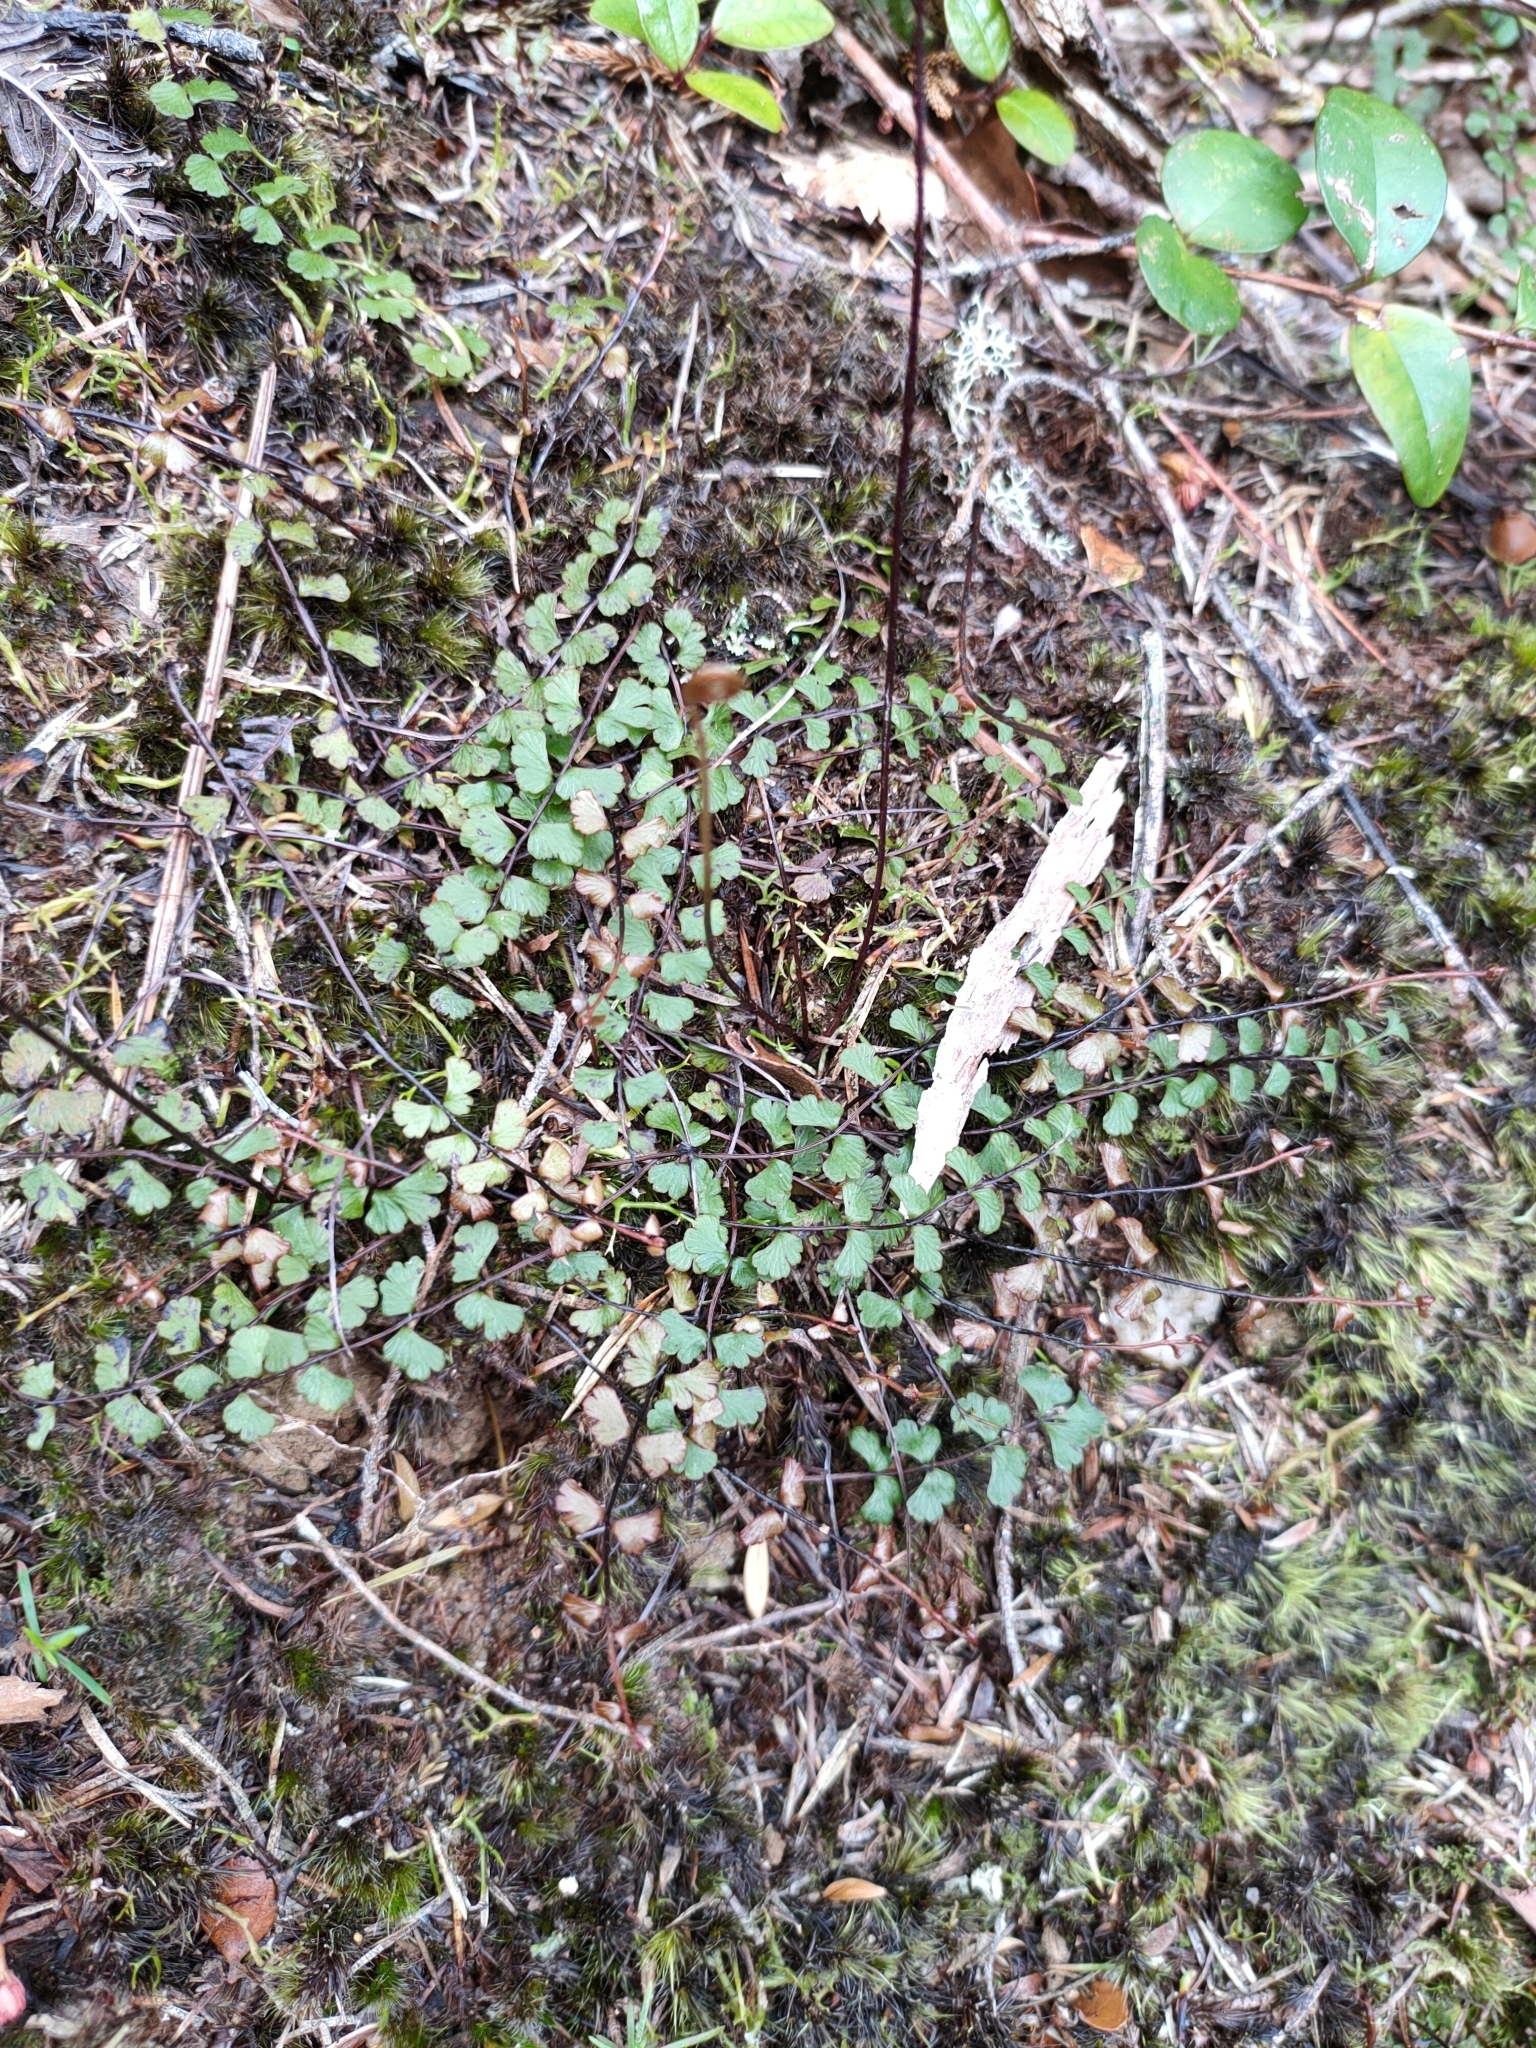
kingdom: Plantae
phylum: Tracheophyta
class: Polypodiopsida
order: Polypodiales
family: Lindsaeaceae
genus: Lindsaea
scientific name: Lindsaea linearis
